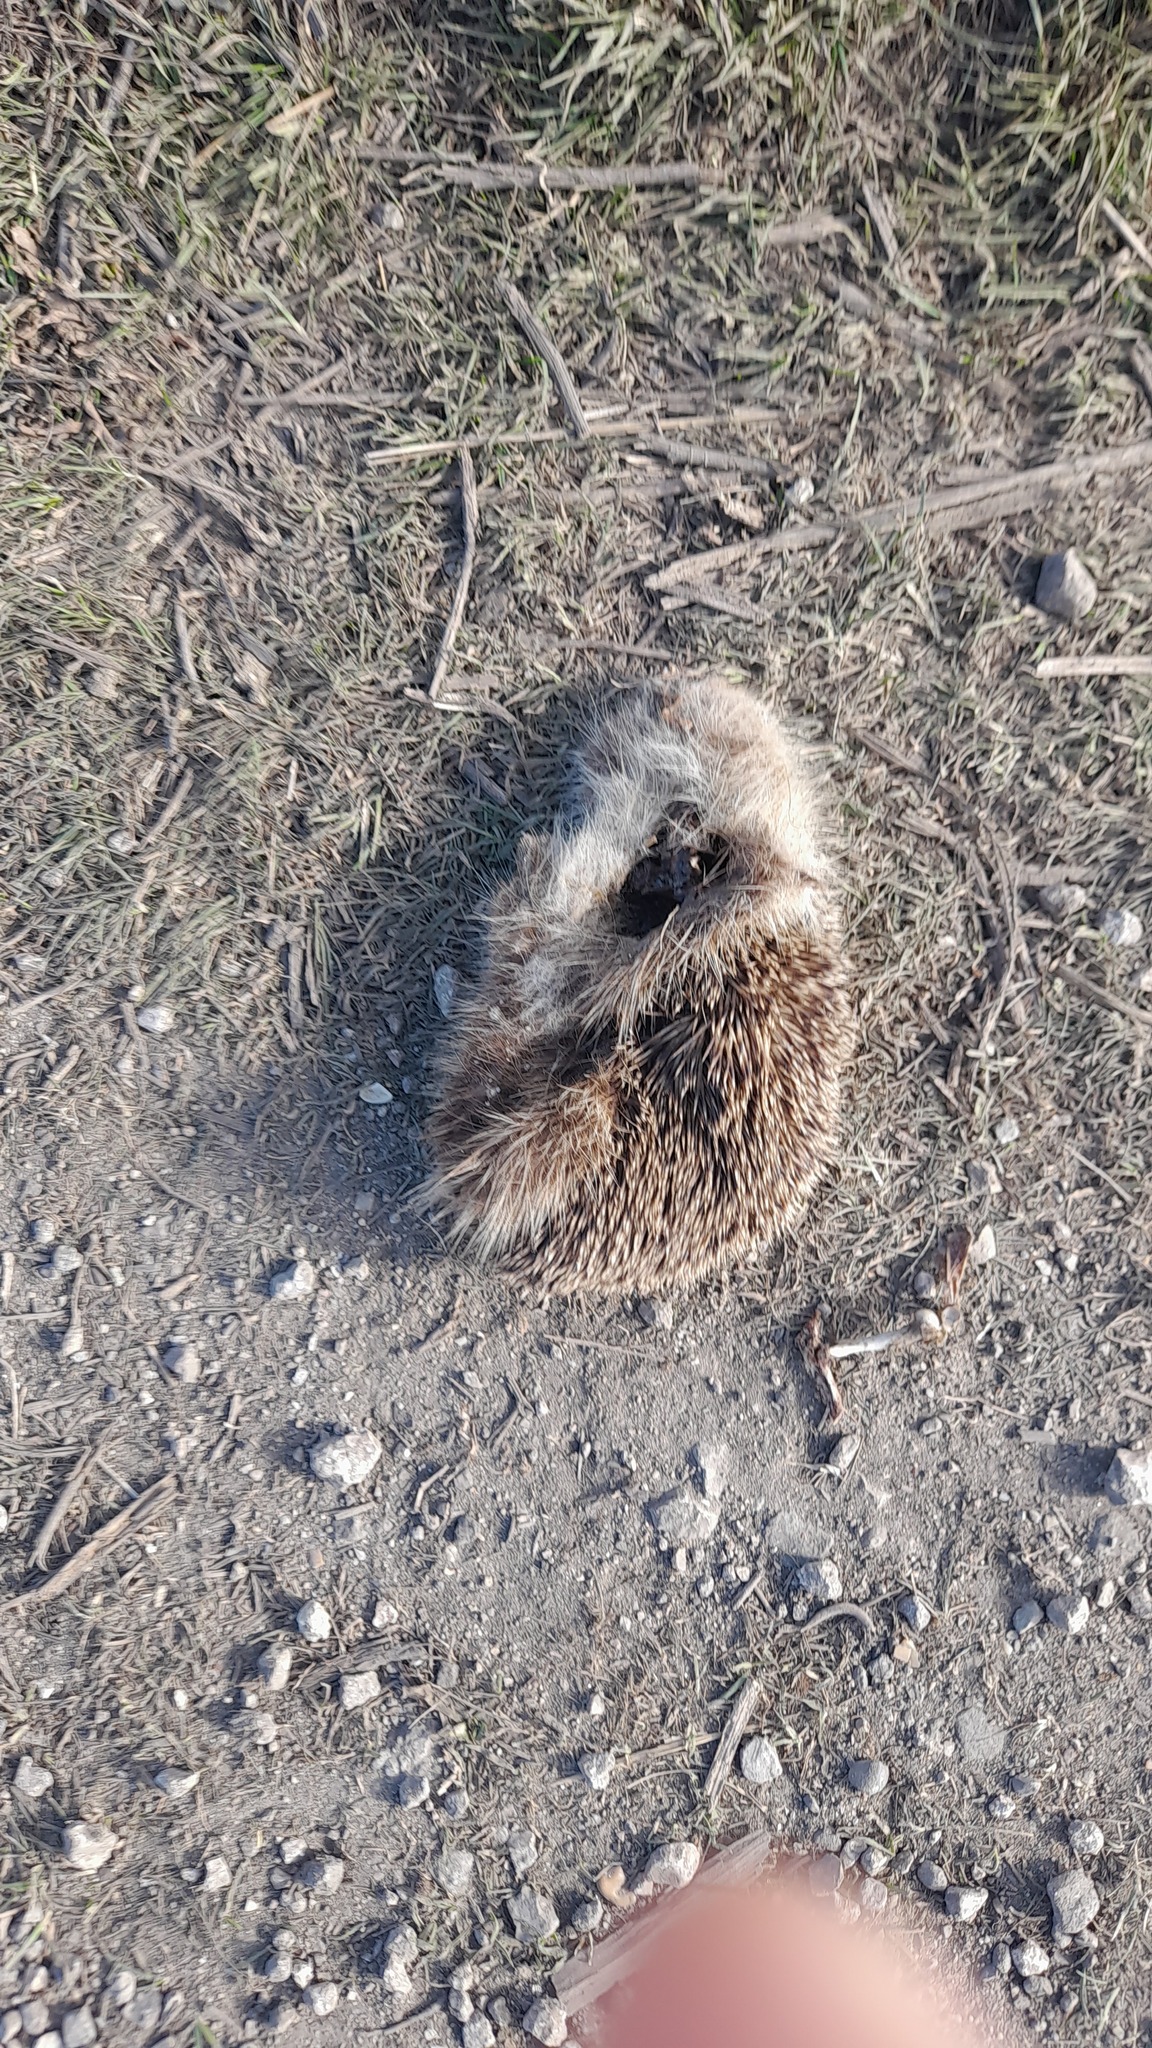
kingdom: Animalia
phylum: Chordata
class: Mammalia
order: Erinaceomorpha
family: Erinaceidae
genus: Erinaceus
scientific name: Erinaceus roumanicus
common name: Northern white-breasted hedgehog
